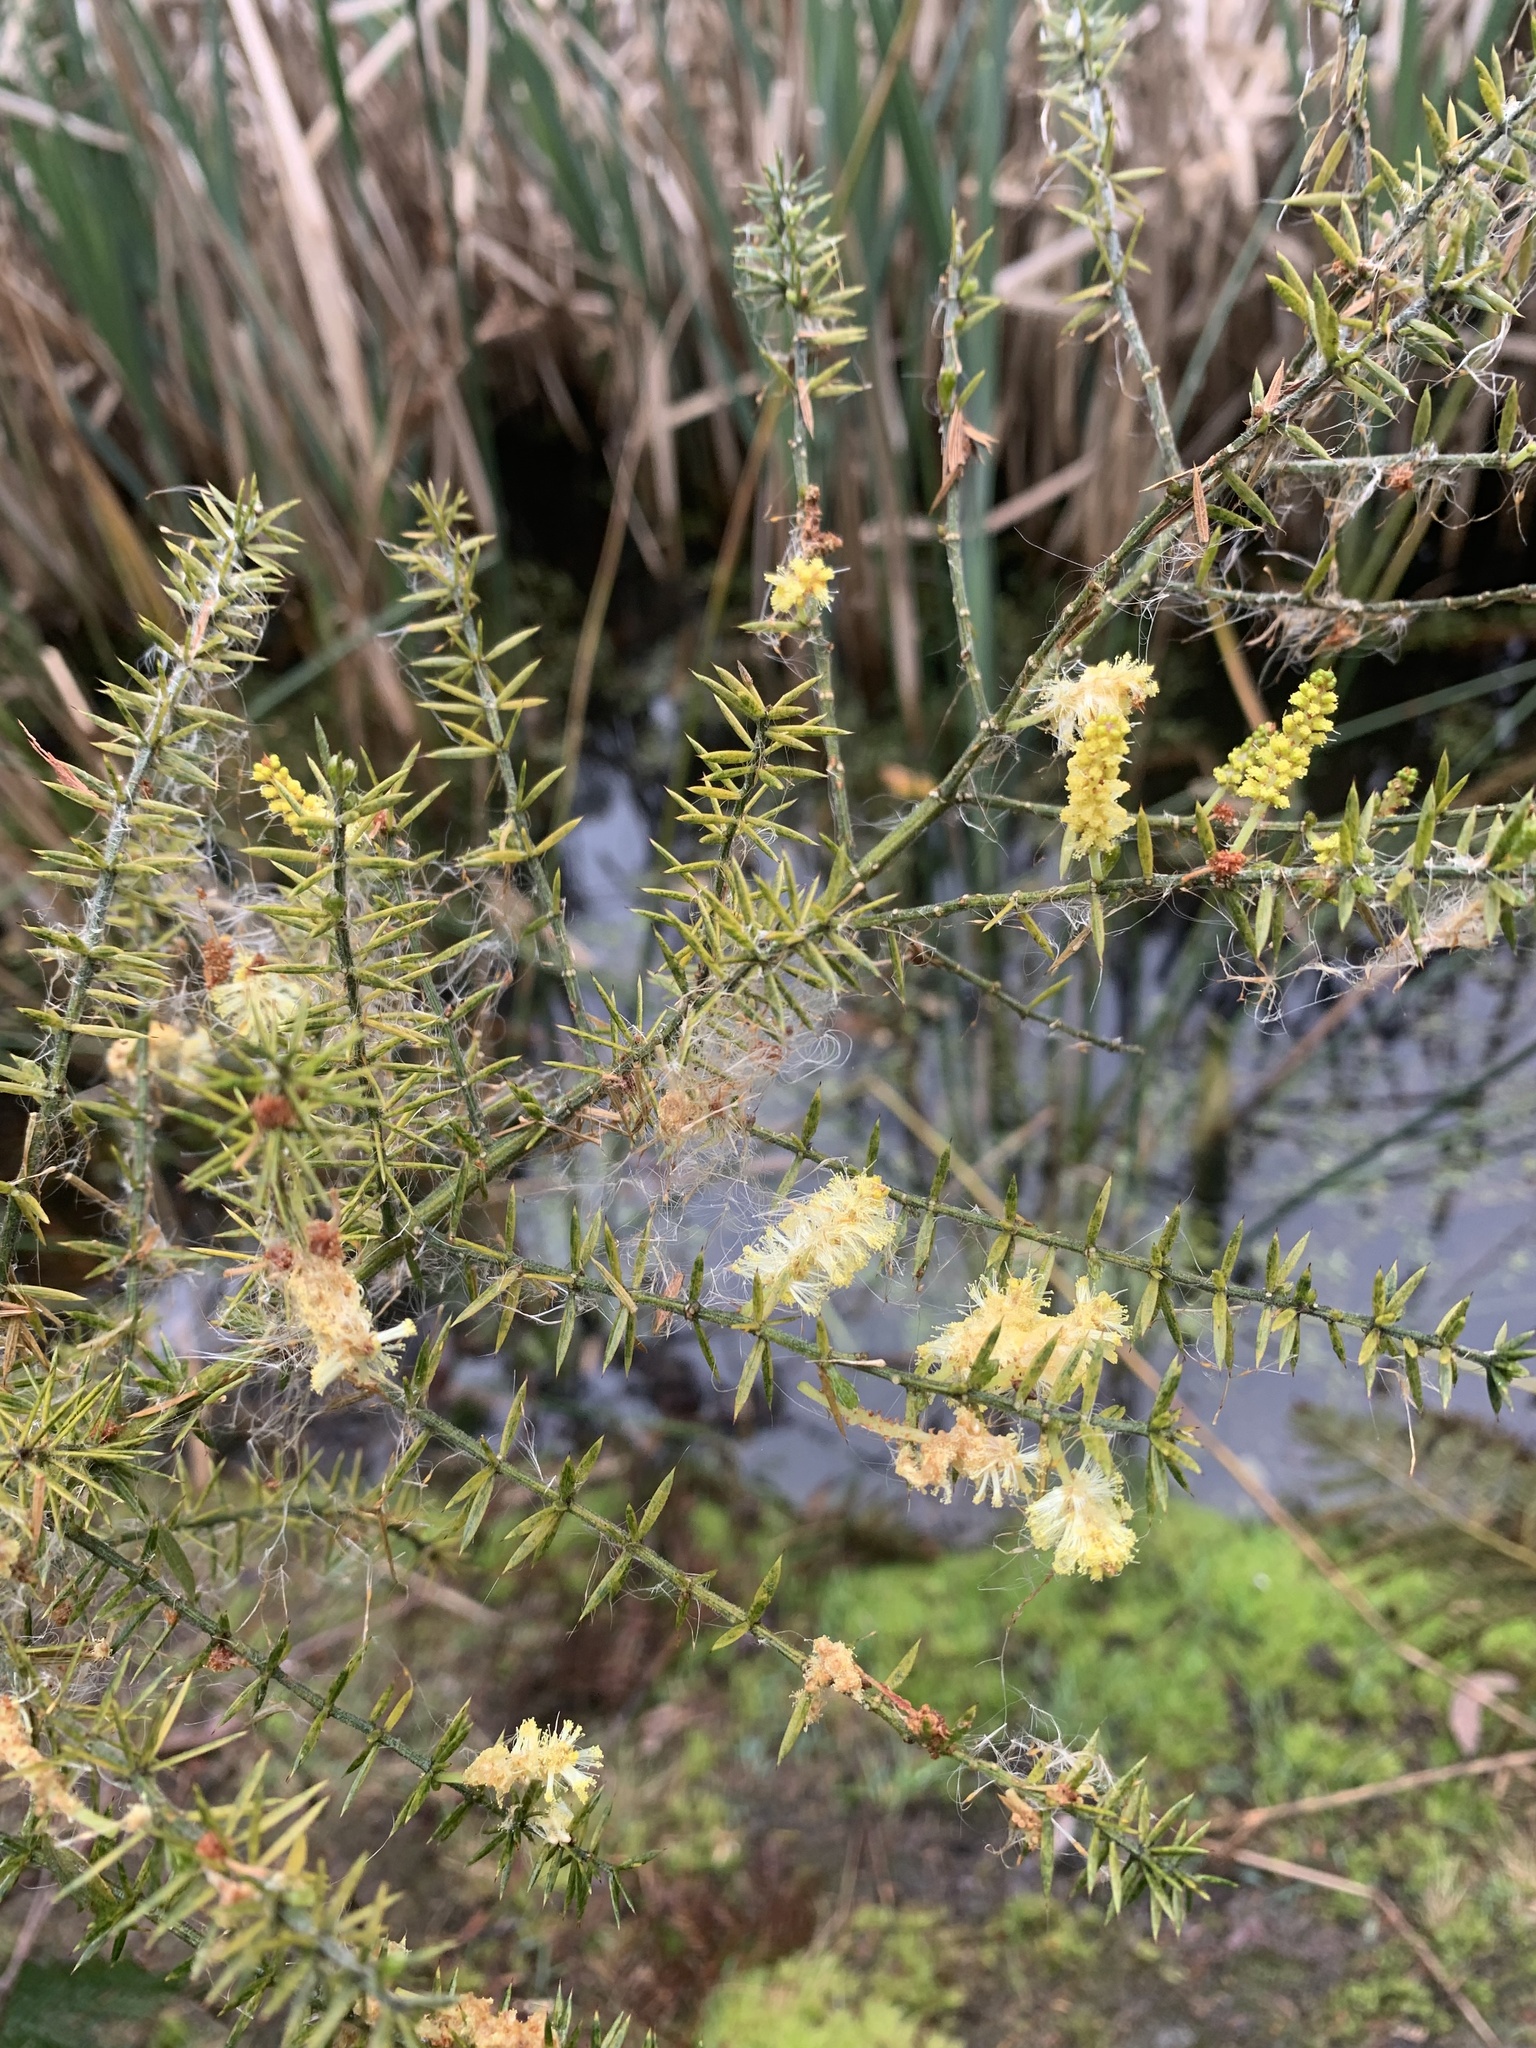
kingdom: Plantae
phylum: Tracheophyta
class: Magnoliopsida
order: Fabales
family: Fabaceae
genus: Acacia
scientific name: Acacia verticillata
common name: Prickly moses
